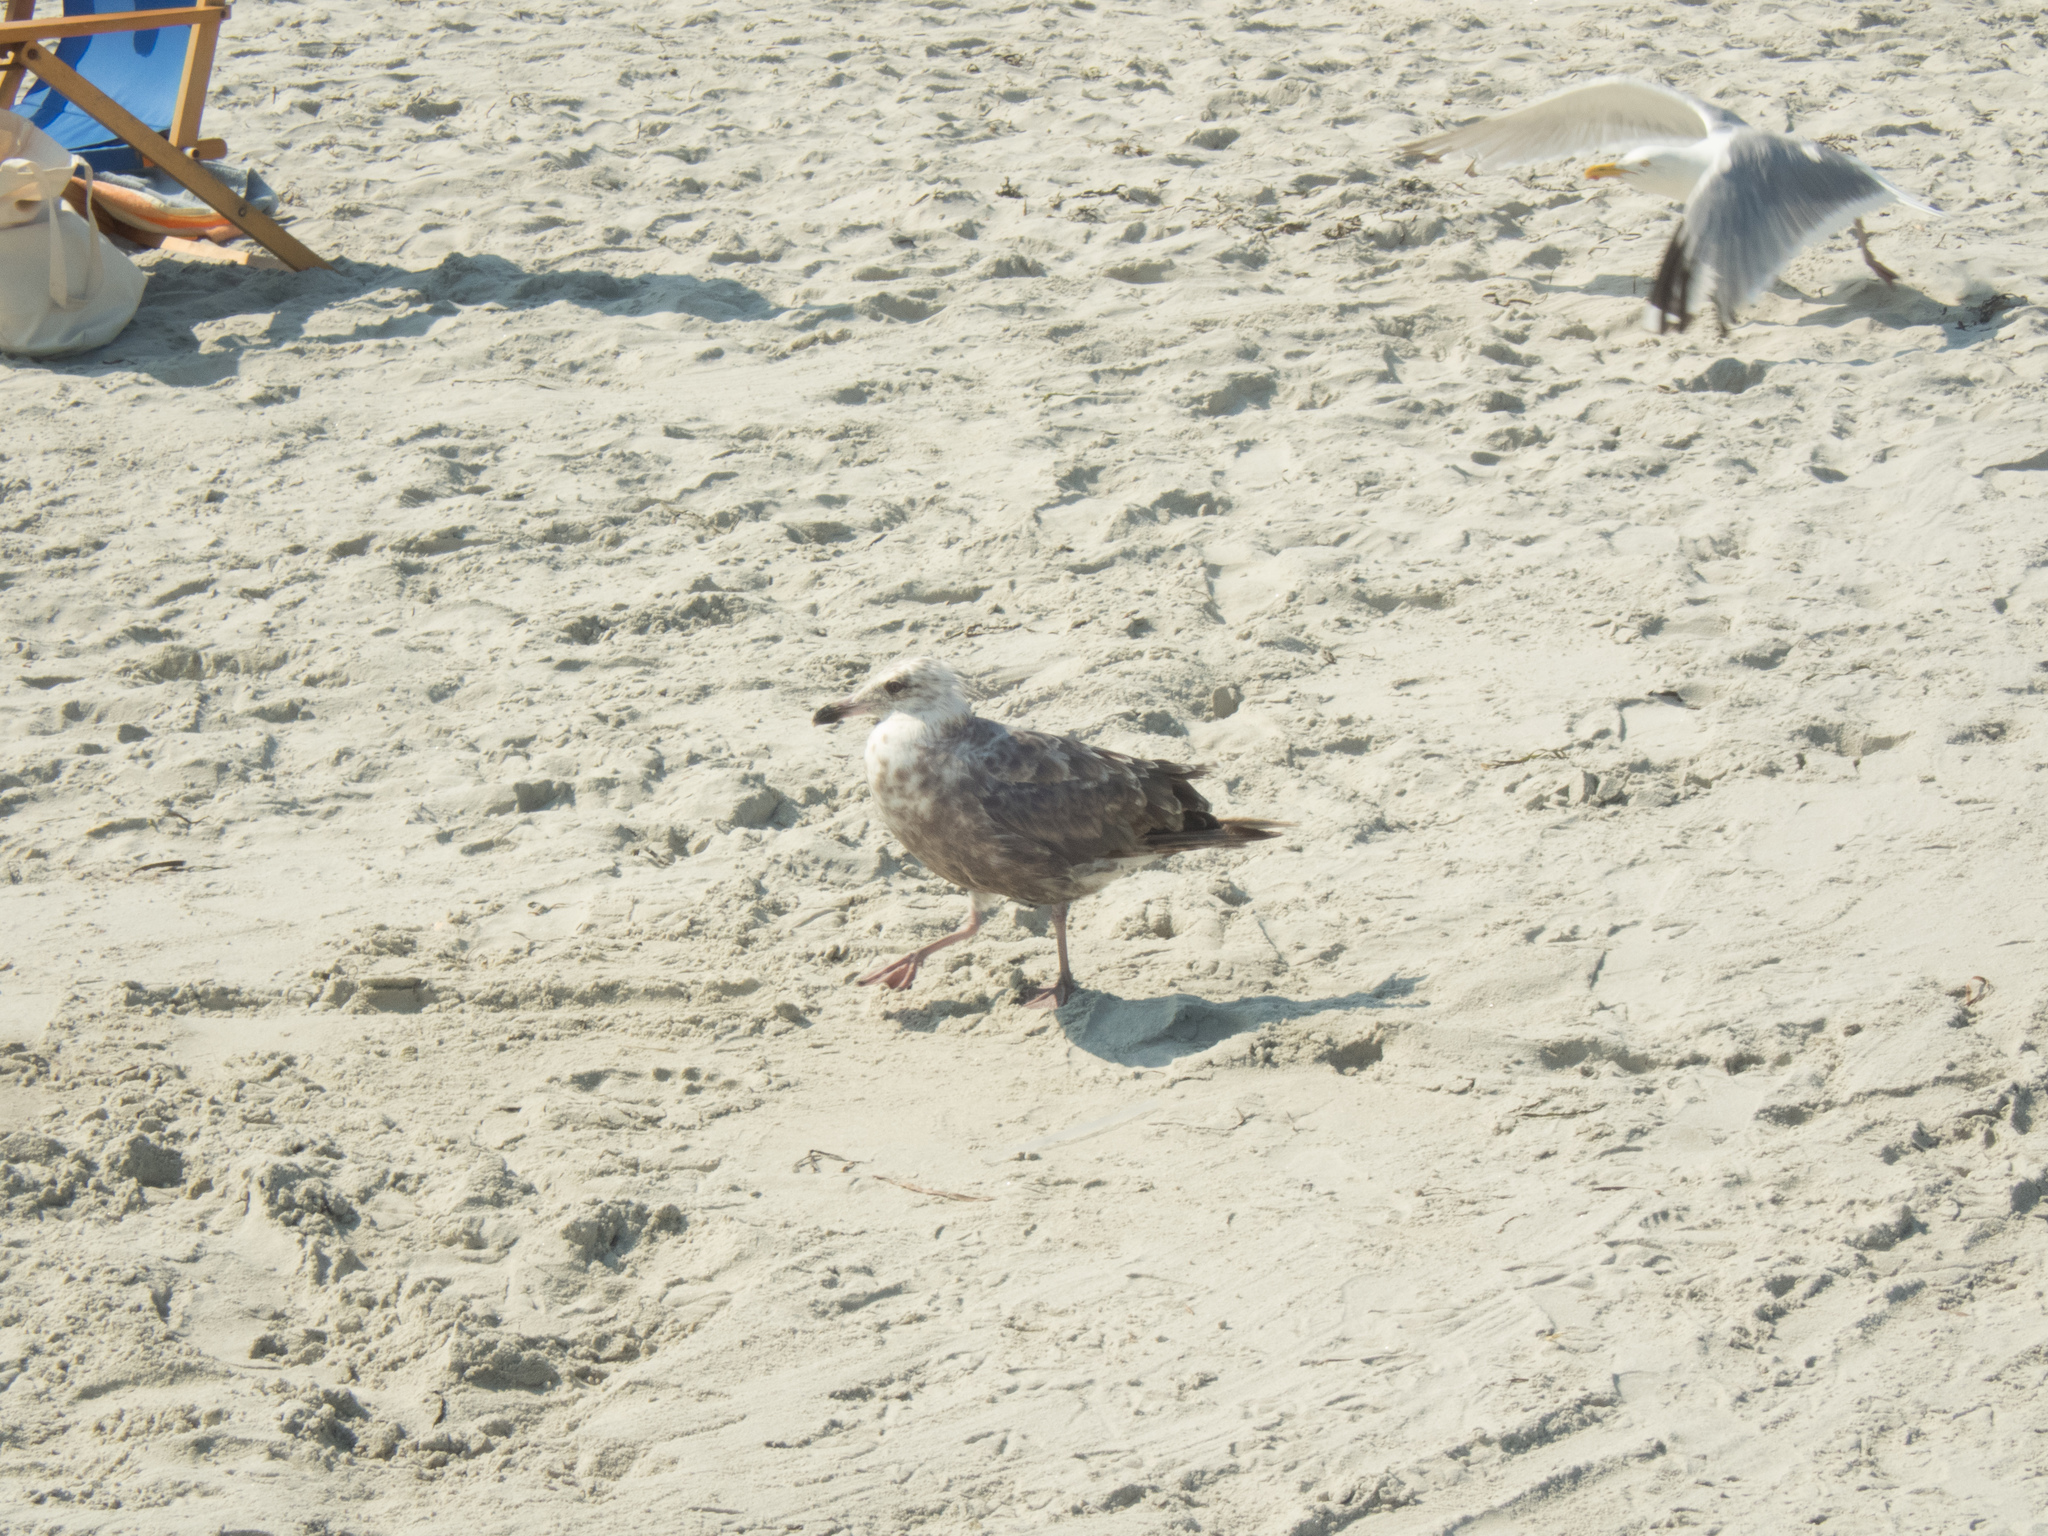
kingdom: Animalia
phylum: Chordata
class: Aves
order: Charadriiformes
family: Laridae
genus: Larus
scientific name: Larus argentatus
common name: Herring gull
